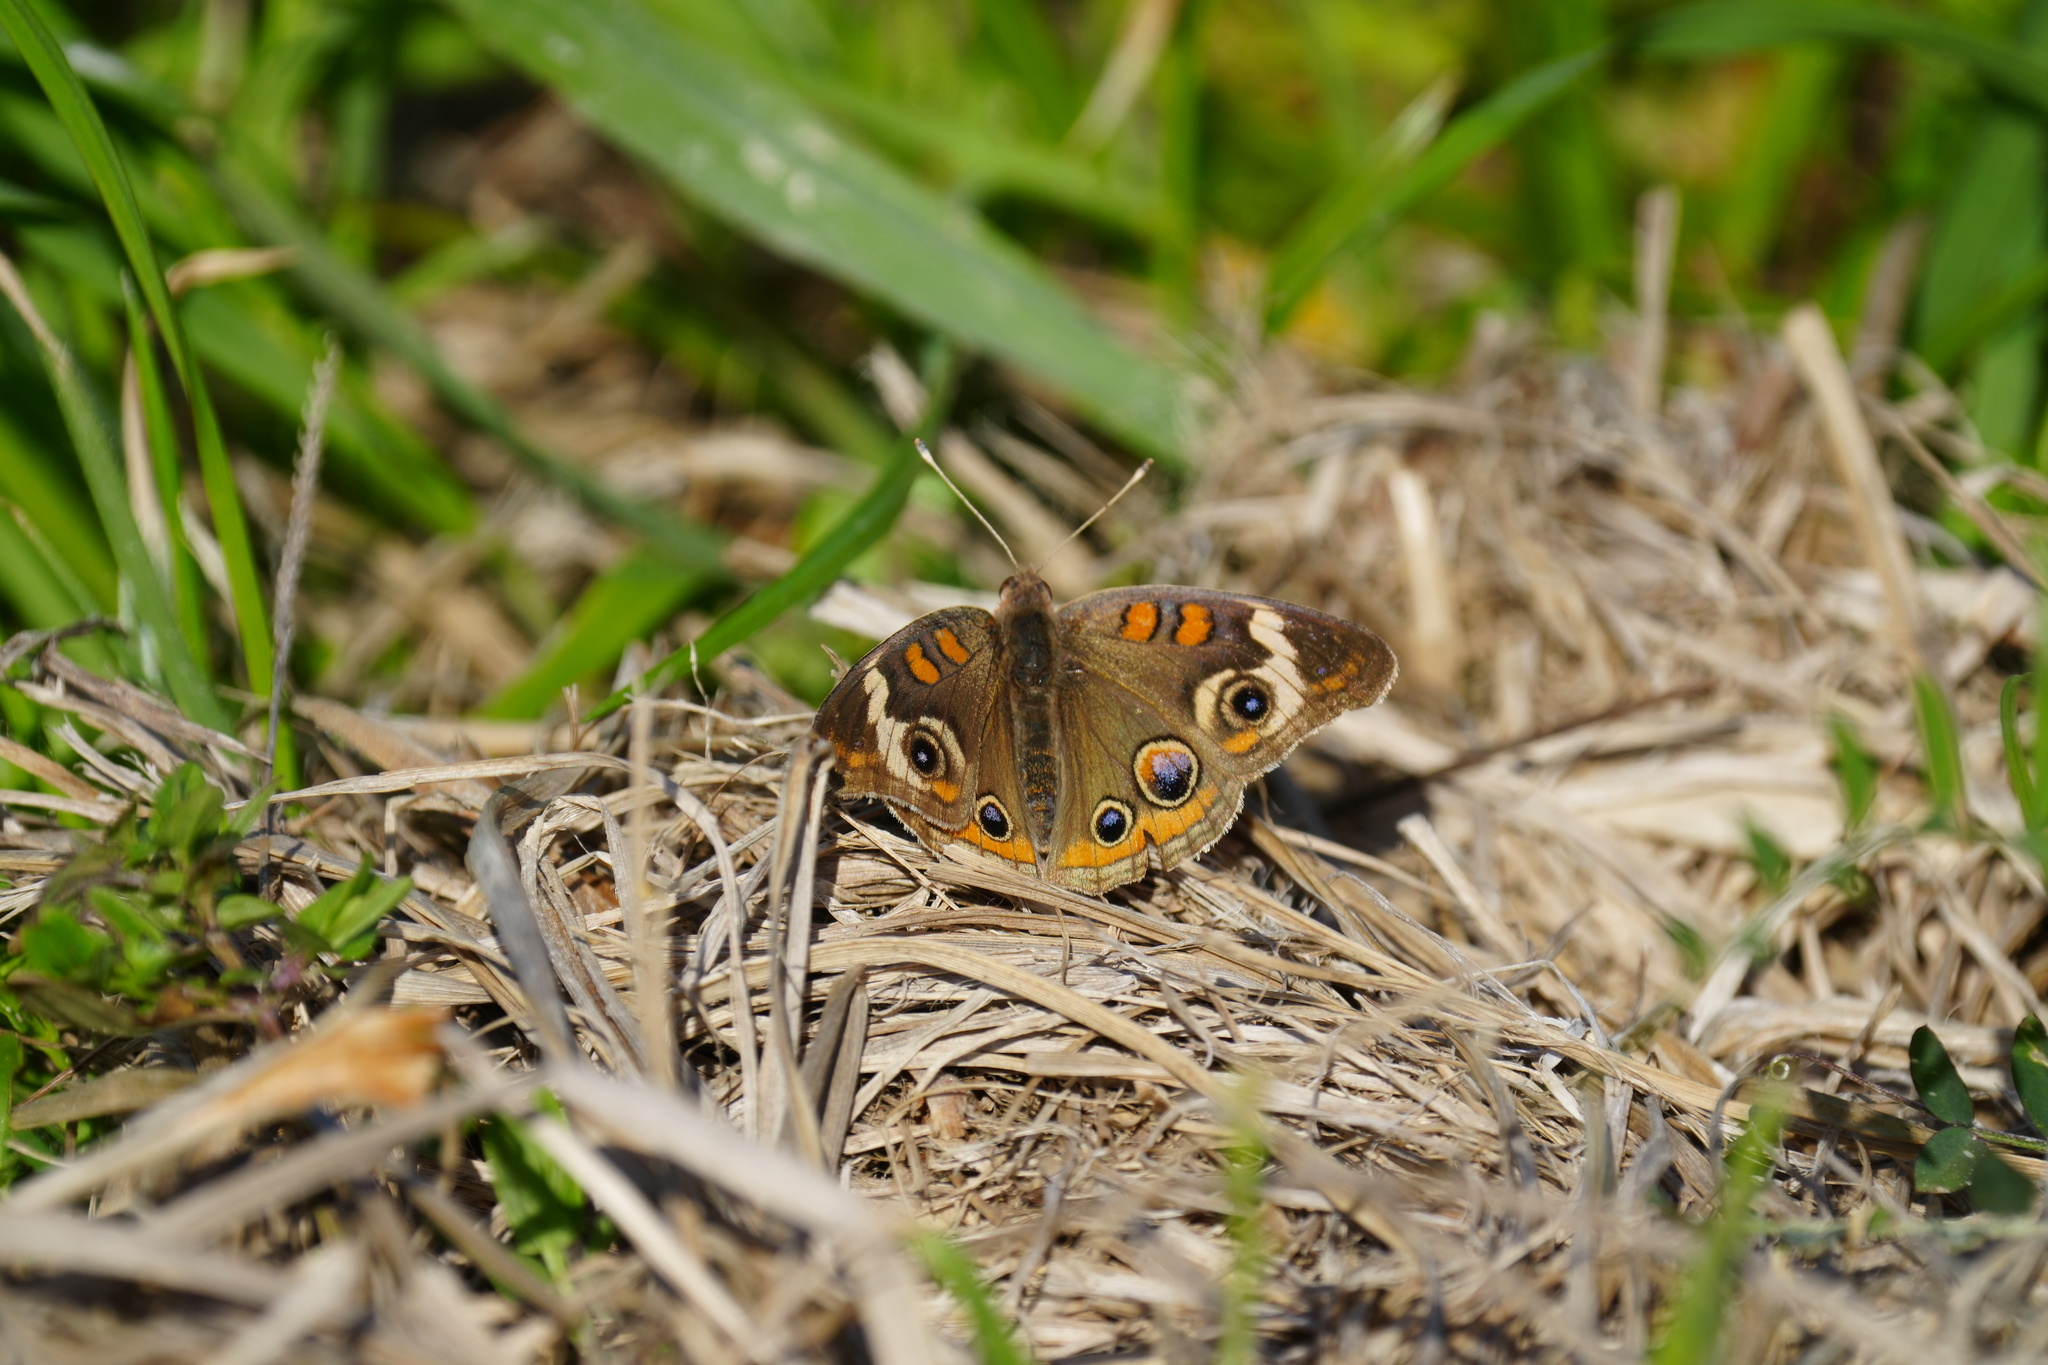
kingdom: Animalia
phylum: Arthropoda
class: Insecta
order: Lepidoptera
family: Nymphalidae
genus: Junonia
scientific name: Junonia coenia
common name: Common buckeye
